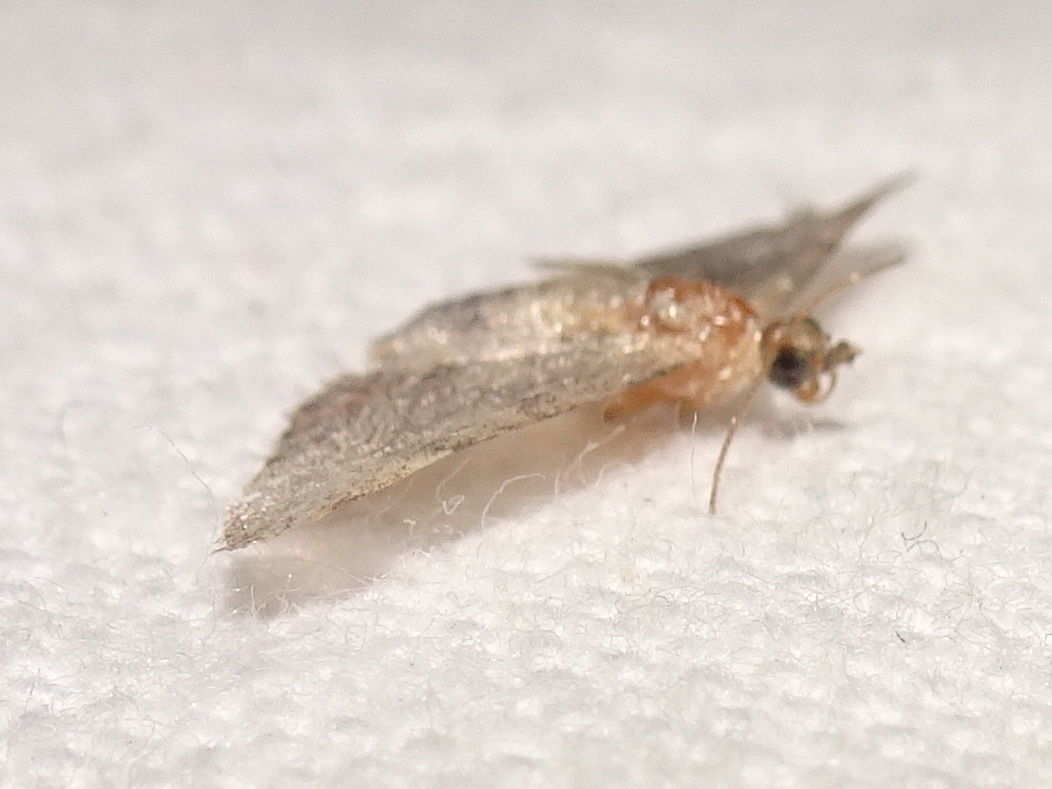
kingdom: Animalia
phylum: Arthropoda
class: Insecta
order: Lepidoptera
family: Geometridae
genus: Gymnoscelis
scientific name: Gymnoscelis rufifasciata
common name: Double-striped pug
